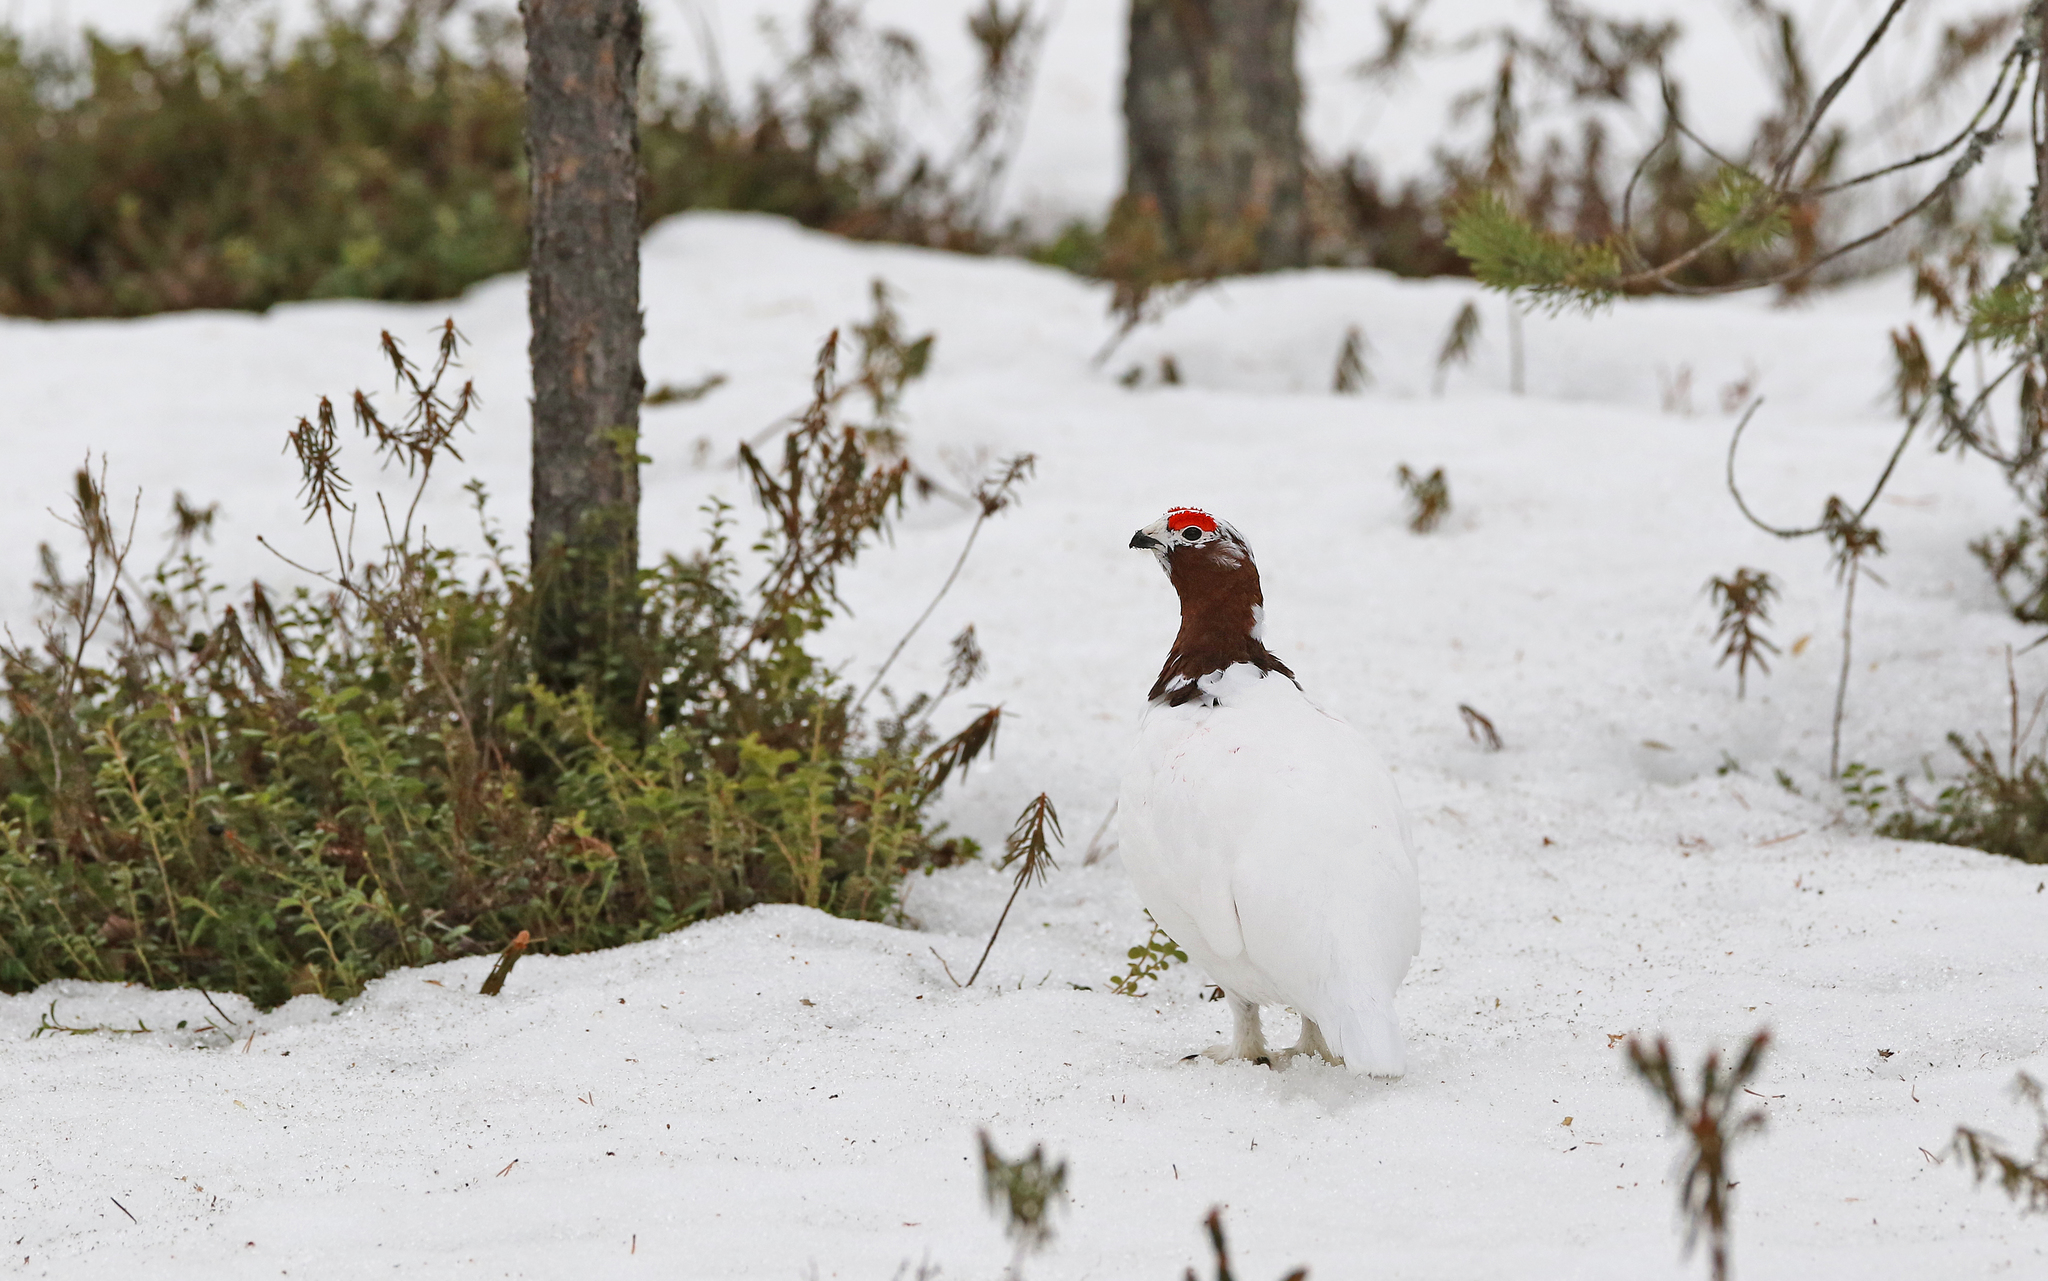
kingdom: Animalia
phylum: Chordata
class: Aves
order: Galliformes
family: Phasianidae
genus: Lagopus
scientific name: Lagopus lagopus
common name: Willow ptarmigan
